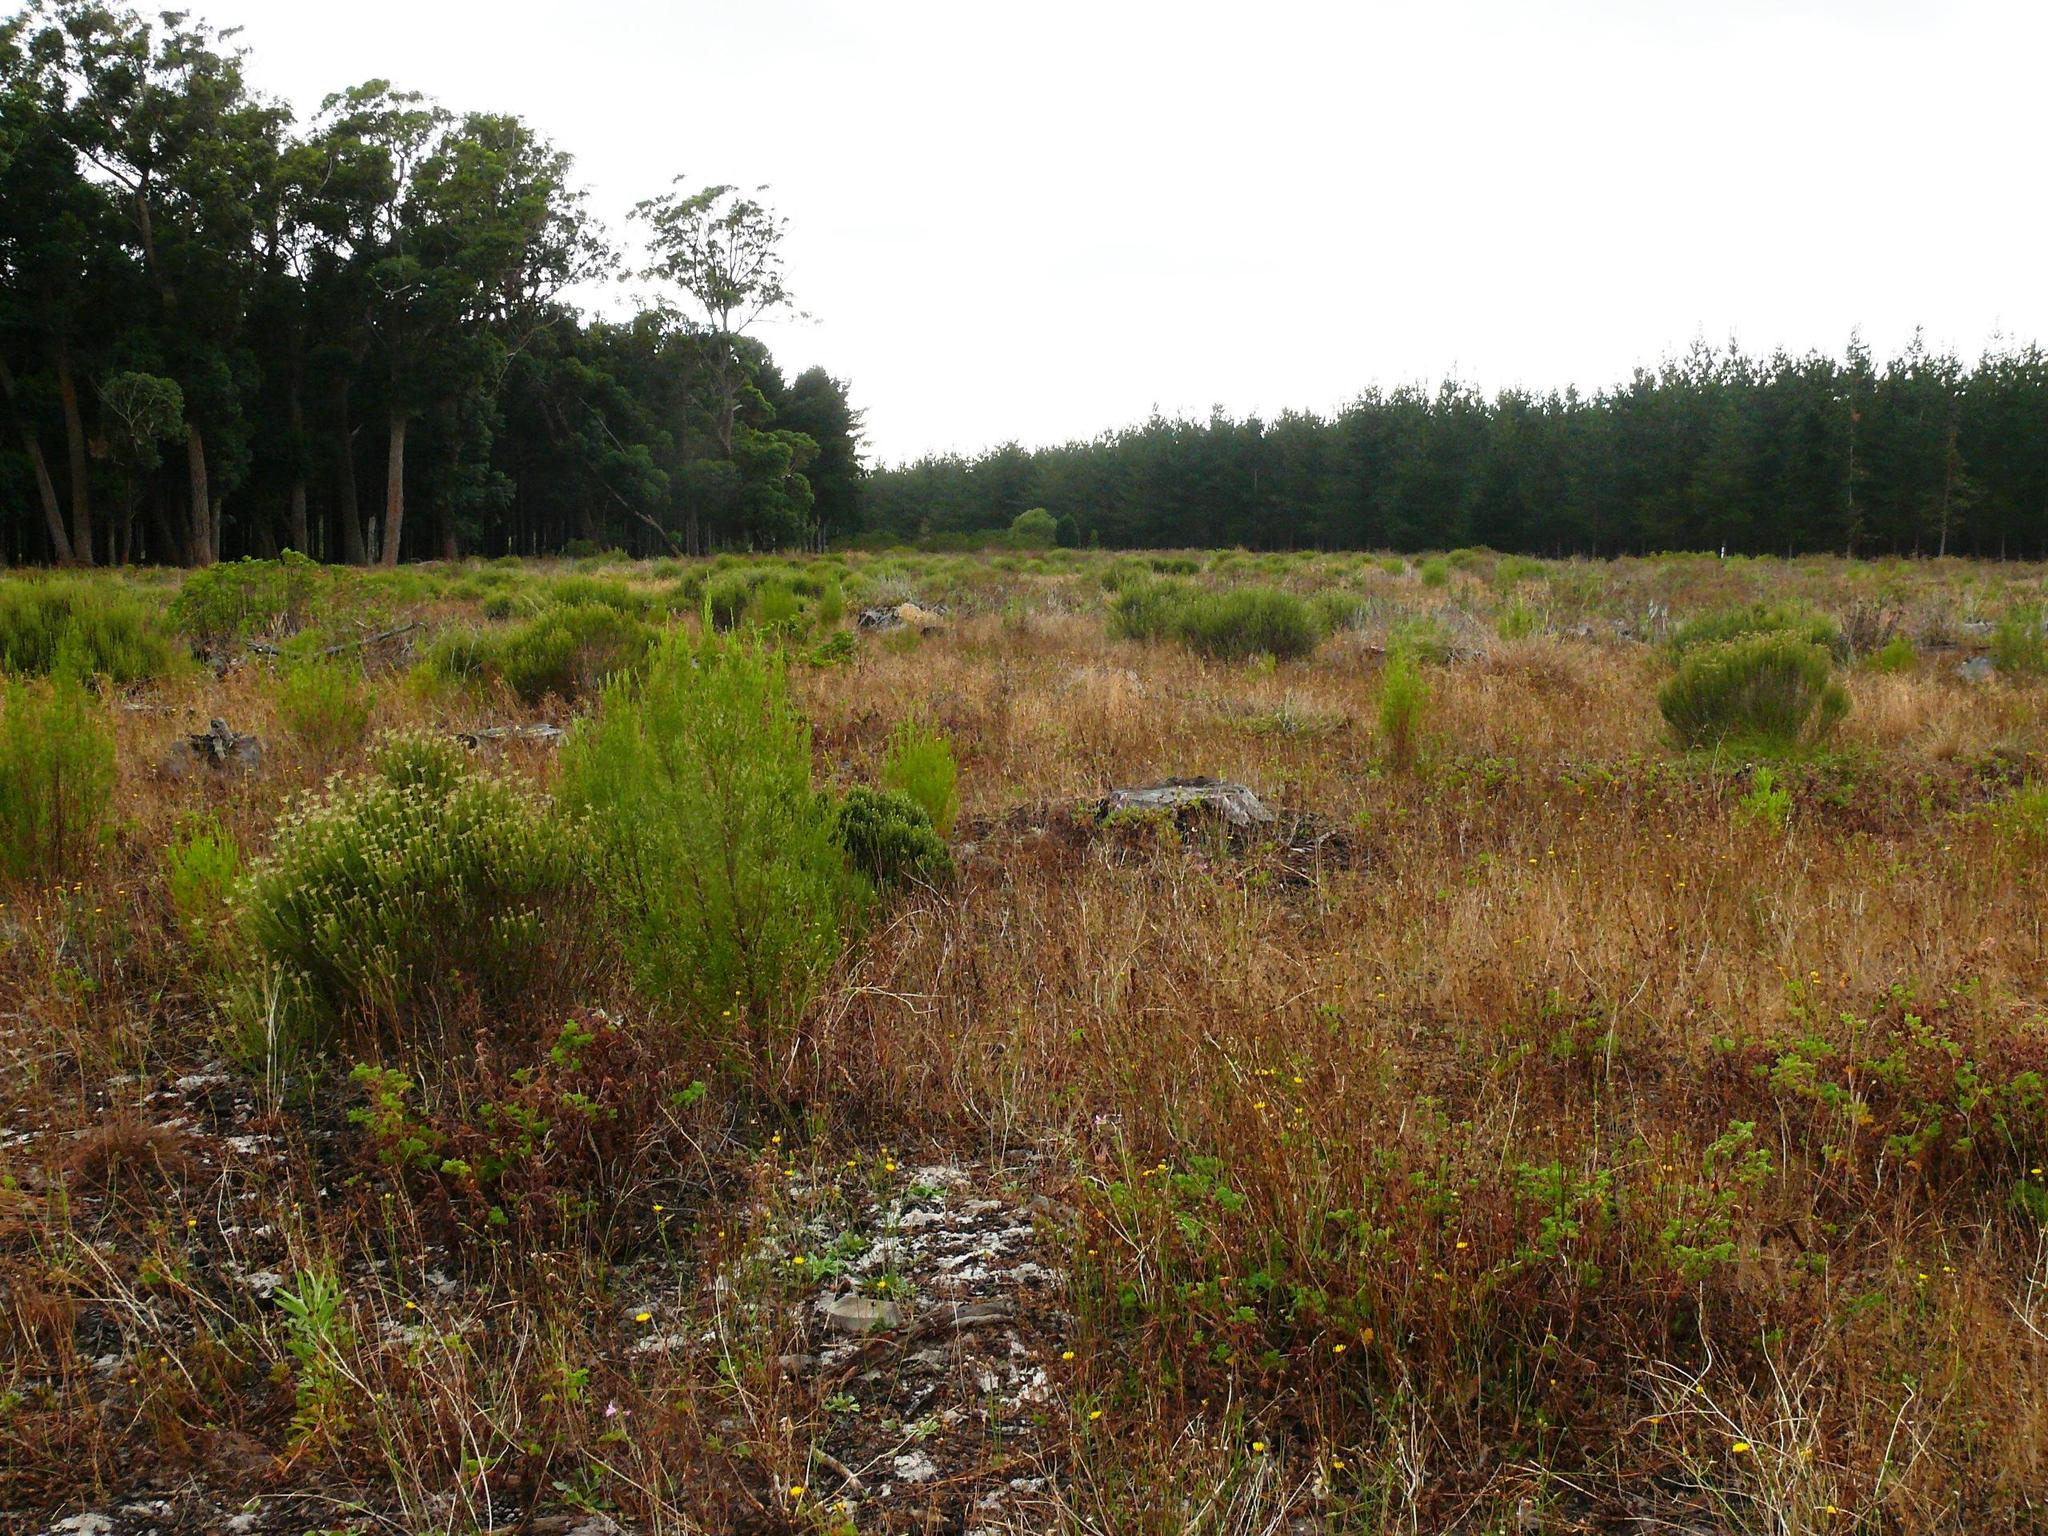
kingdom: Plantae
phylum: Tracheophyta
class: Magnoliopsida
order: Malvales
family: Thymelaeaceae
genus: Passerina
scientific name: Passerina corymbosa
